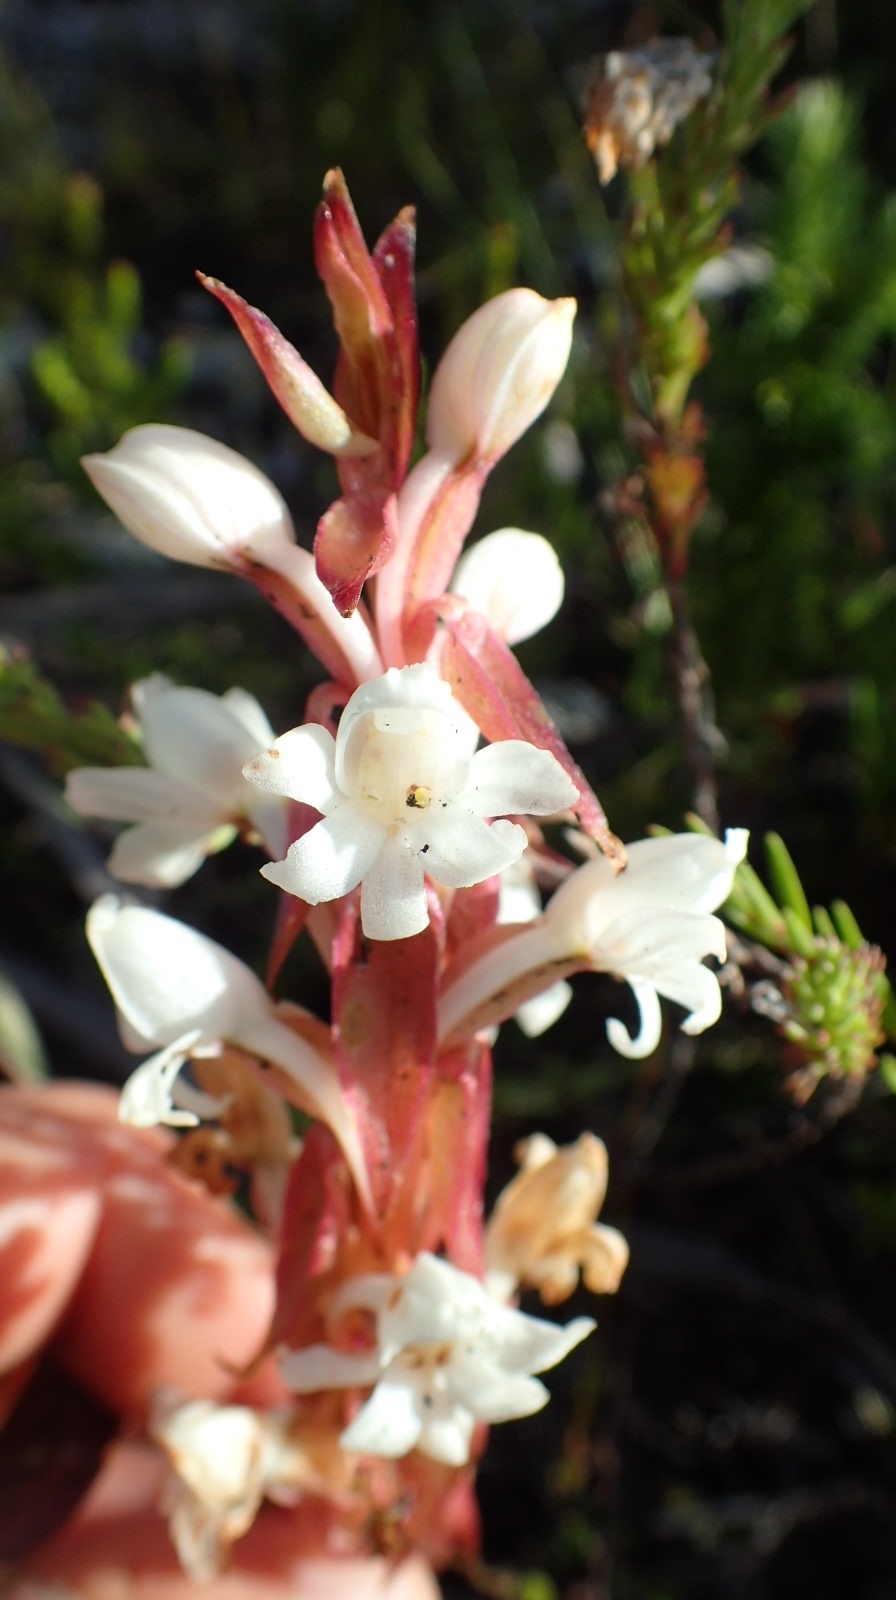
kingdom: Plantae
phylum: Tracheophyta
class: Liliopsida
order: Asparagales
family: Orchidaceae
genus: Satyrium
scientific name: Satyrium acuminatum
